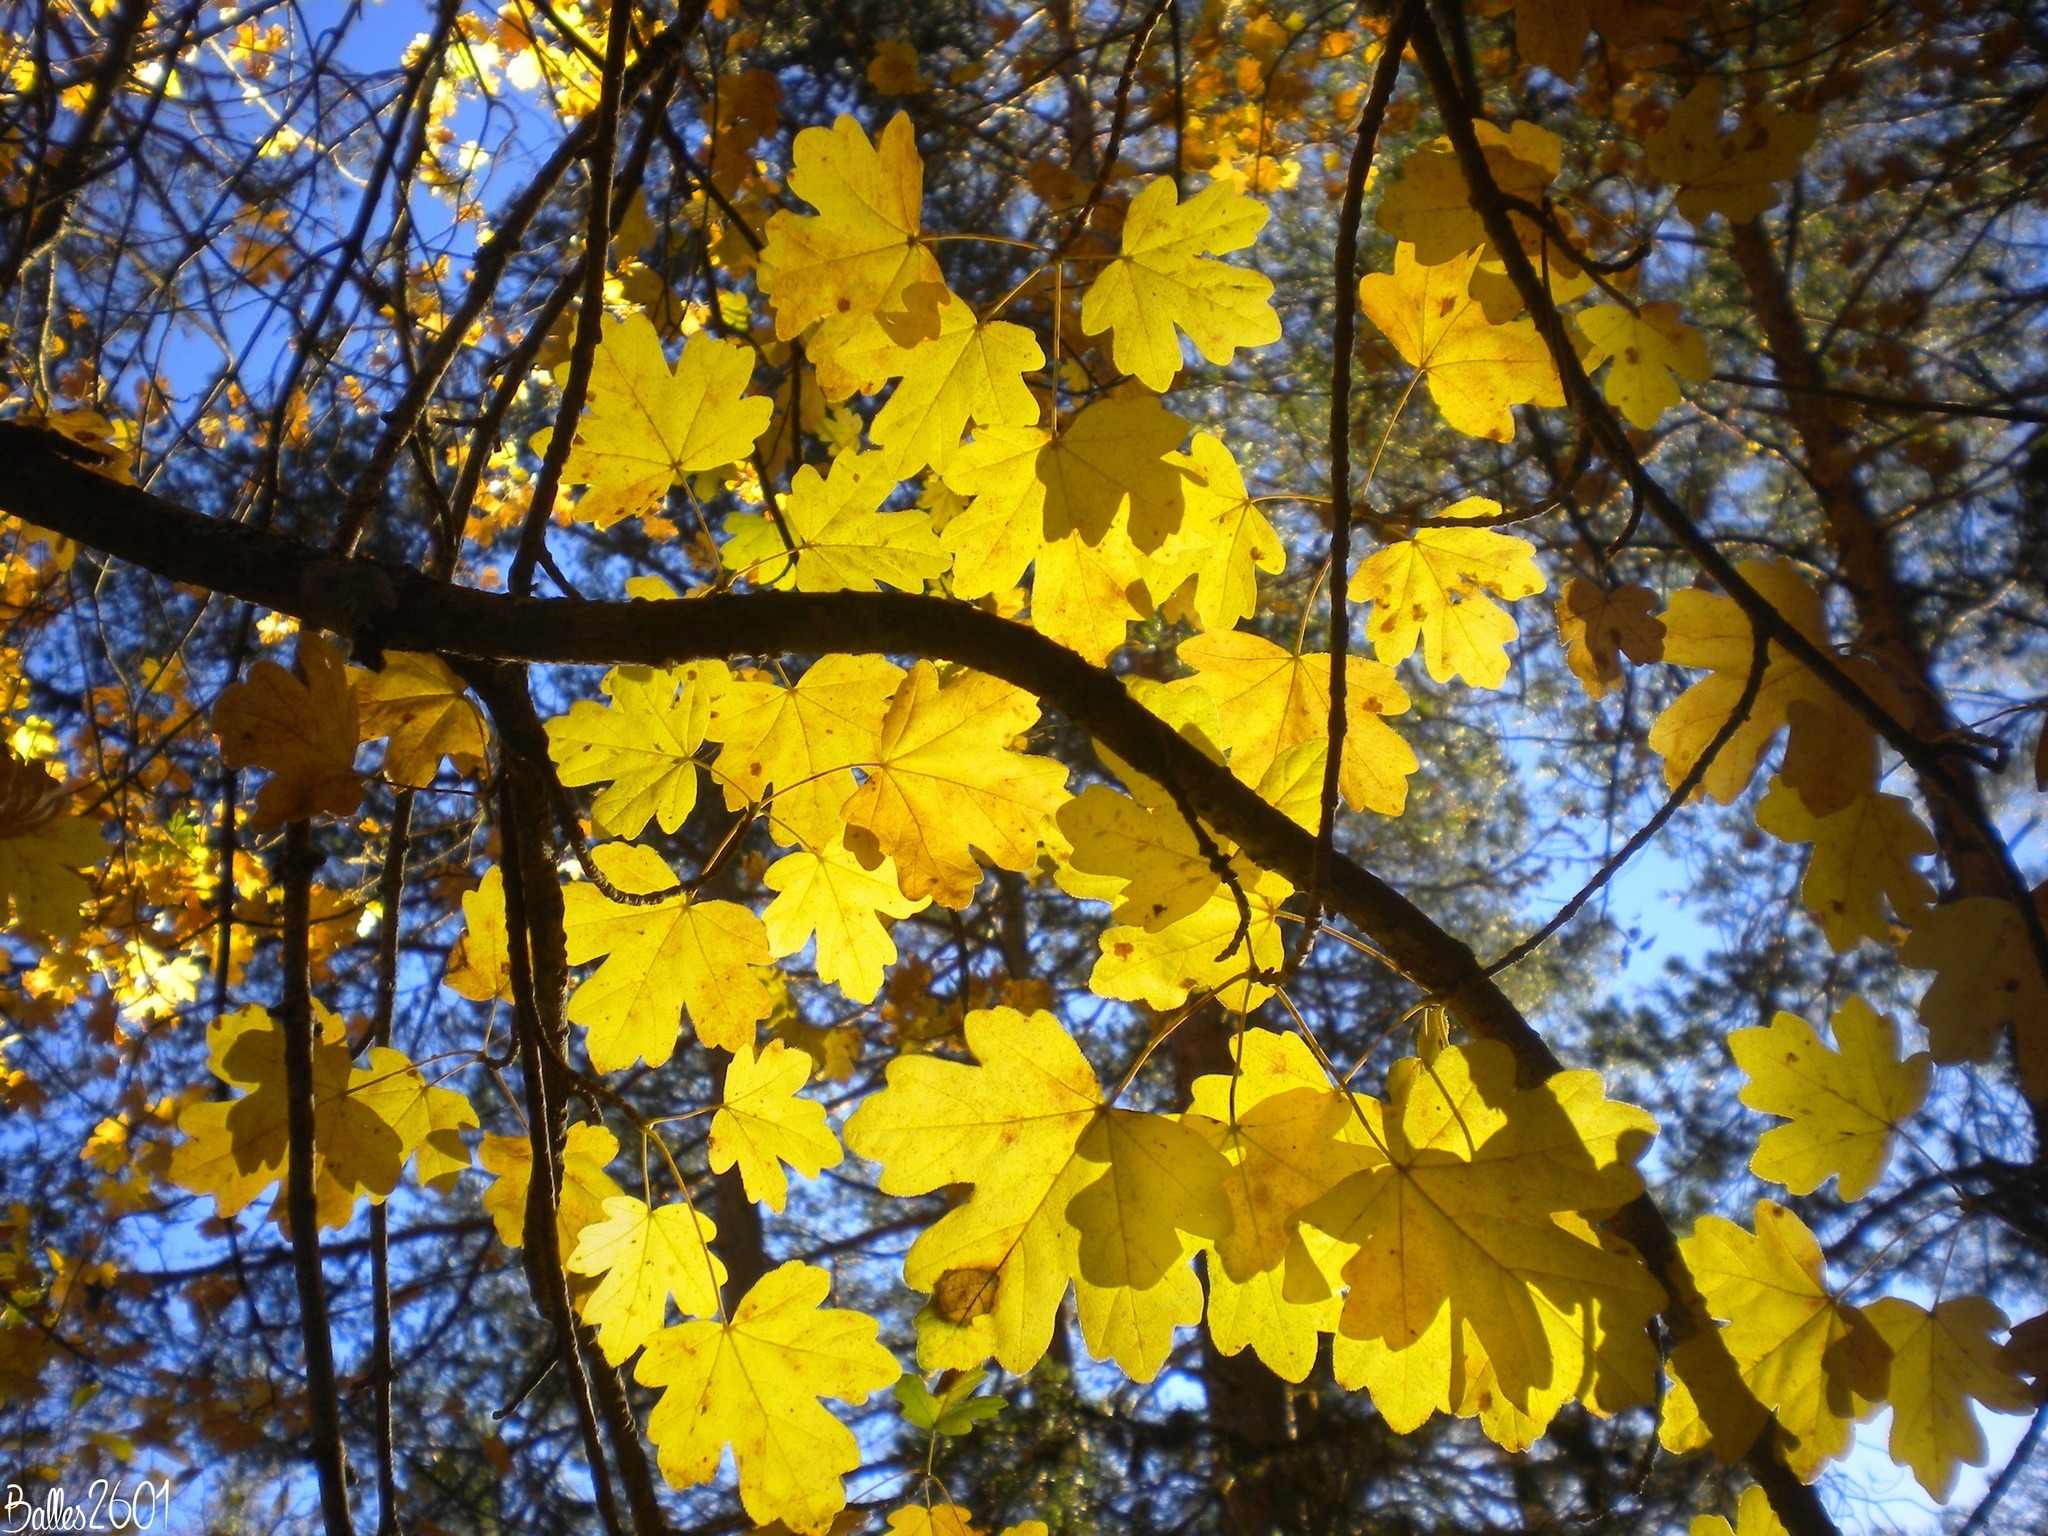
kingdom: Plantae
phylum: Tracheophyta
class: Magnoliopsida
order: Sapindales
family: Sapindaceae
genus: Acer
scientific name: Acer campestre
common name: Field maple
